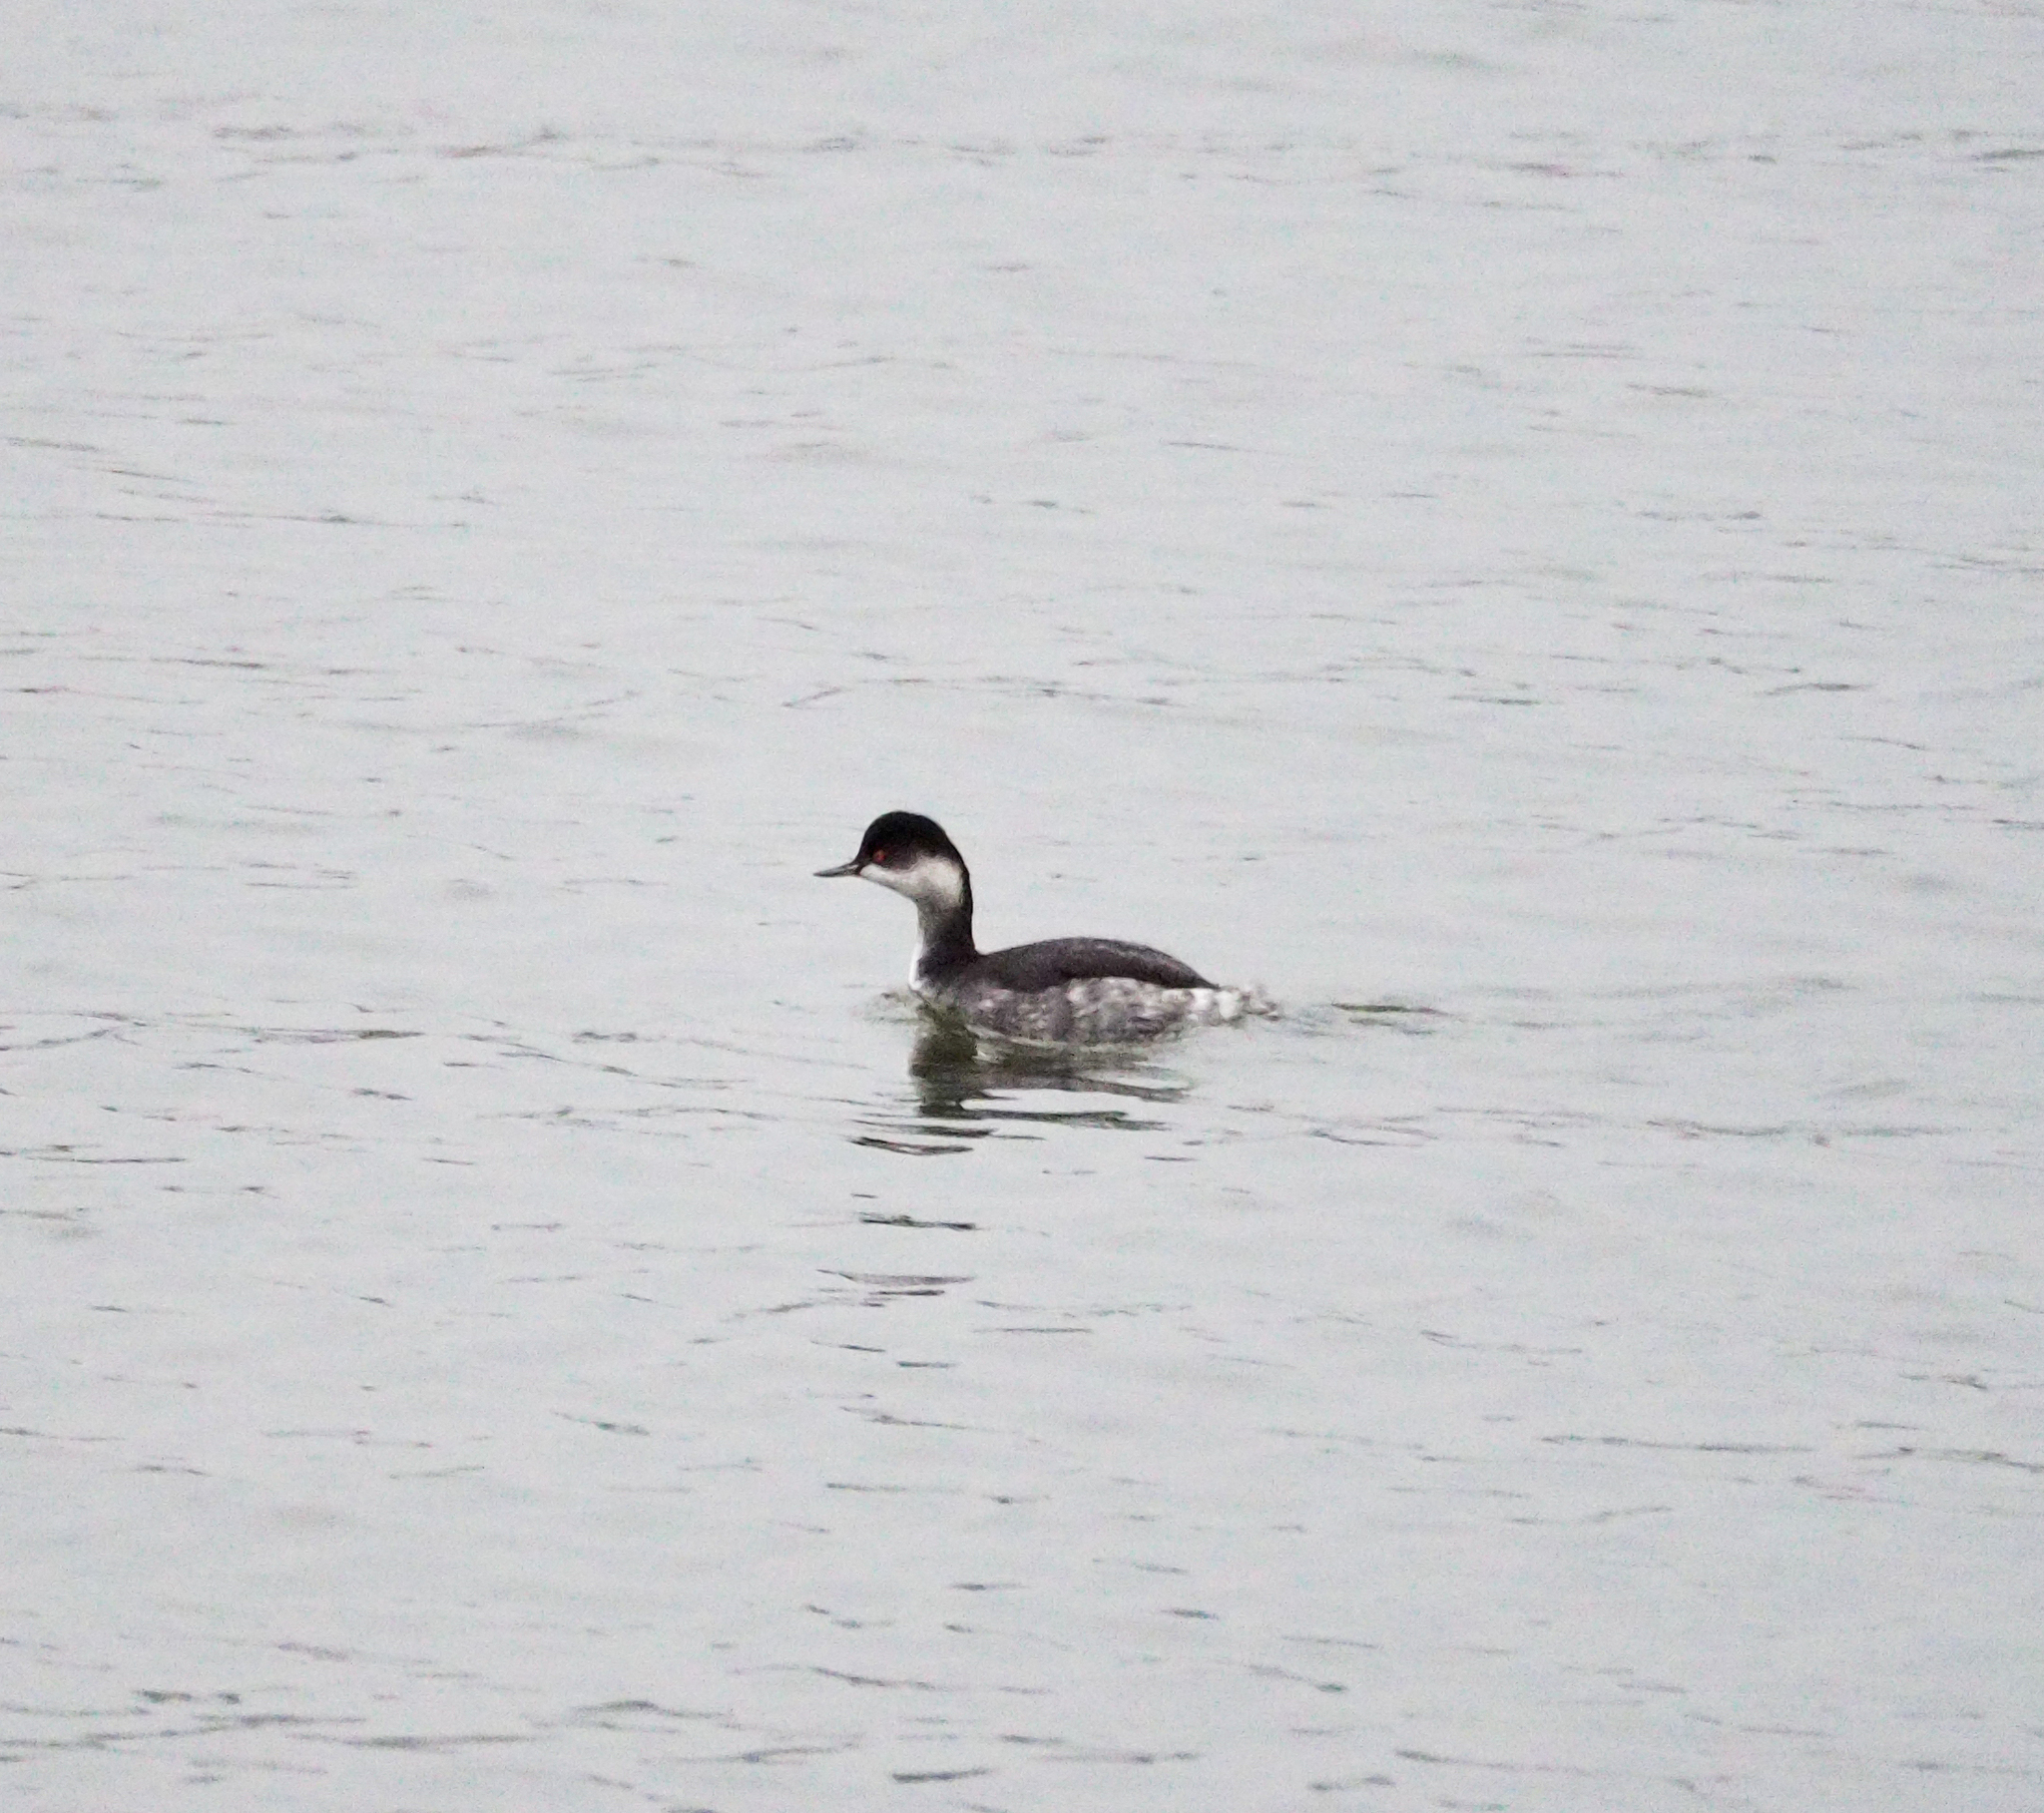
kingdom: Animalia
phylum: Chordata
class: Aves
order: Podicipediformes
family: Podicipedidae
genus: Podiceps
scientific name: Podiceps nigricollis
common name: Black-necked grebe
